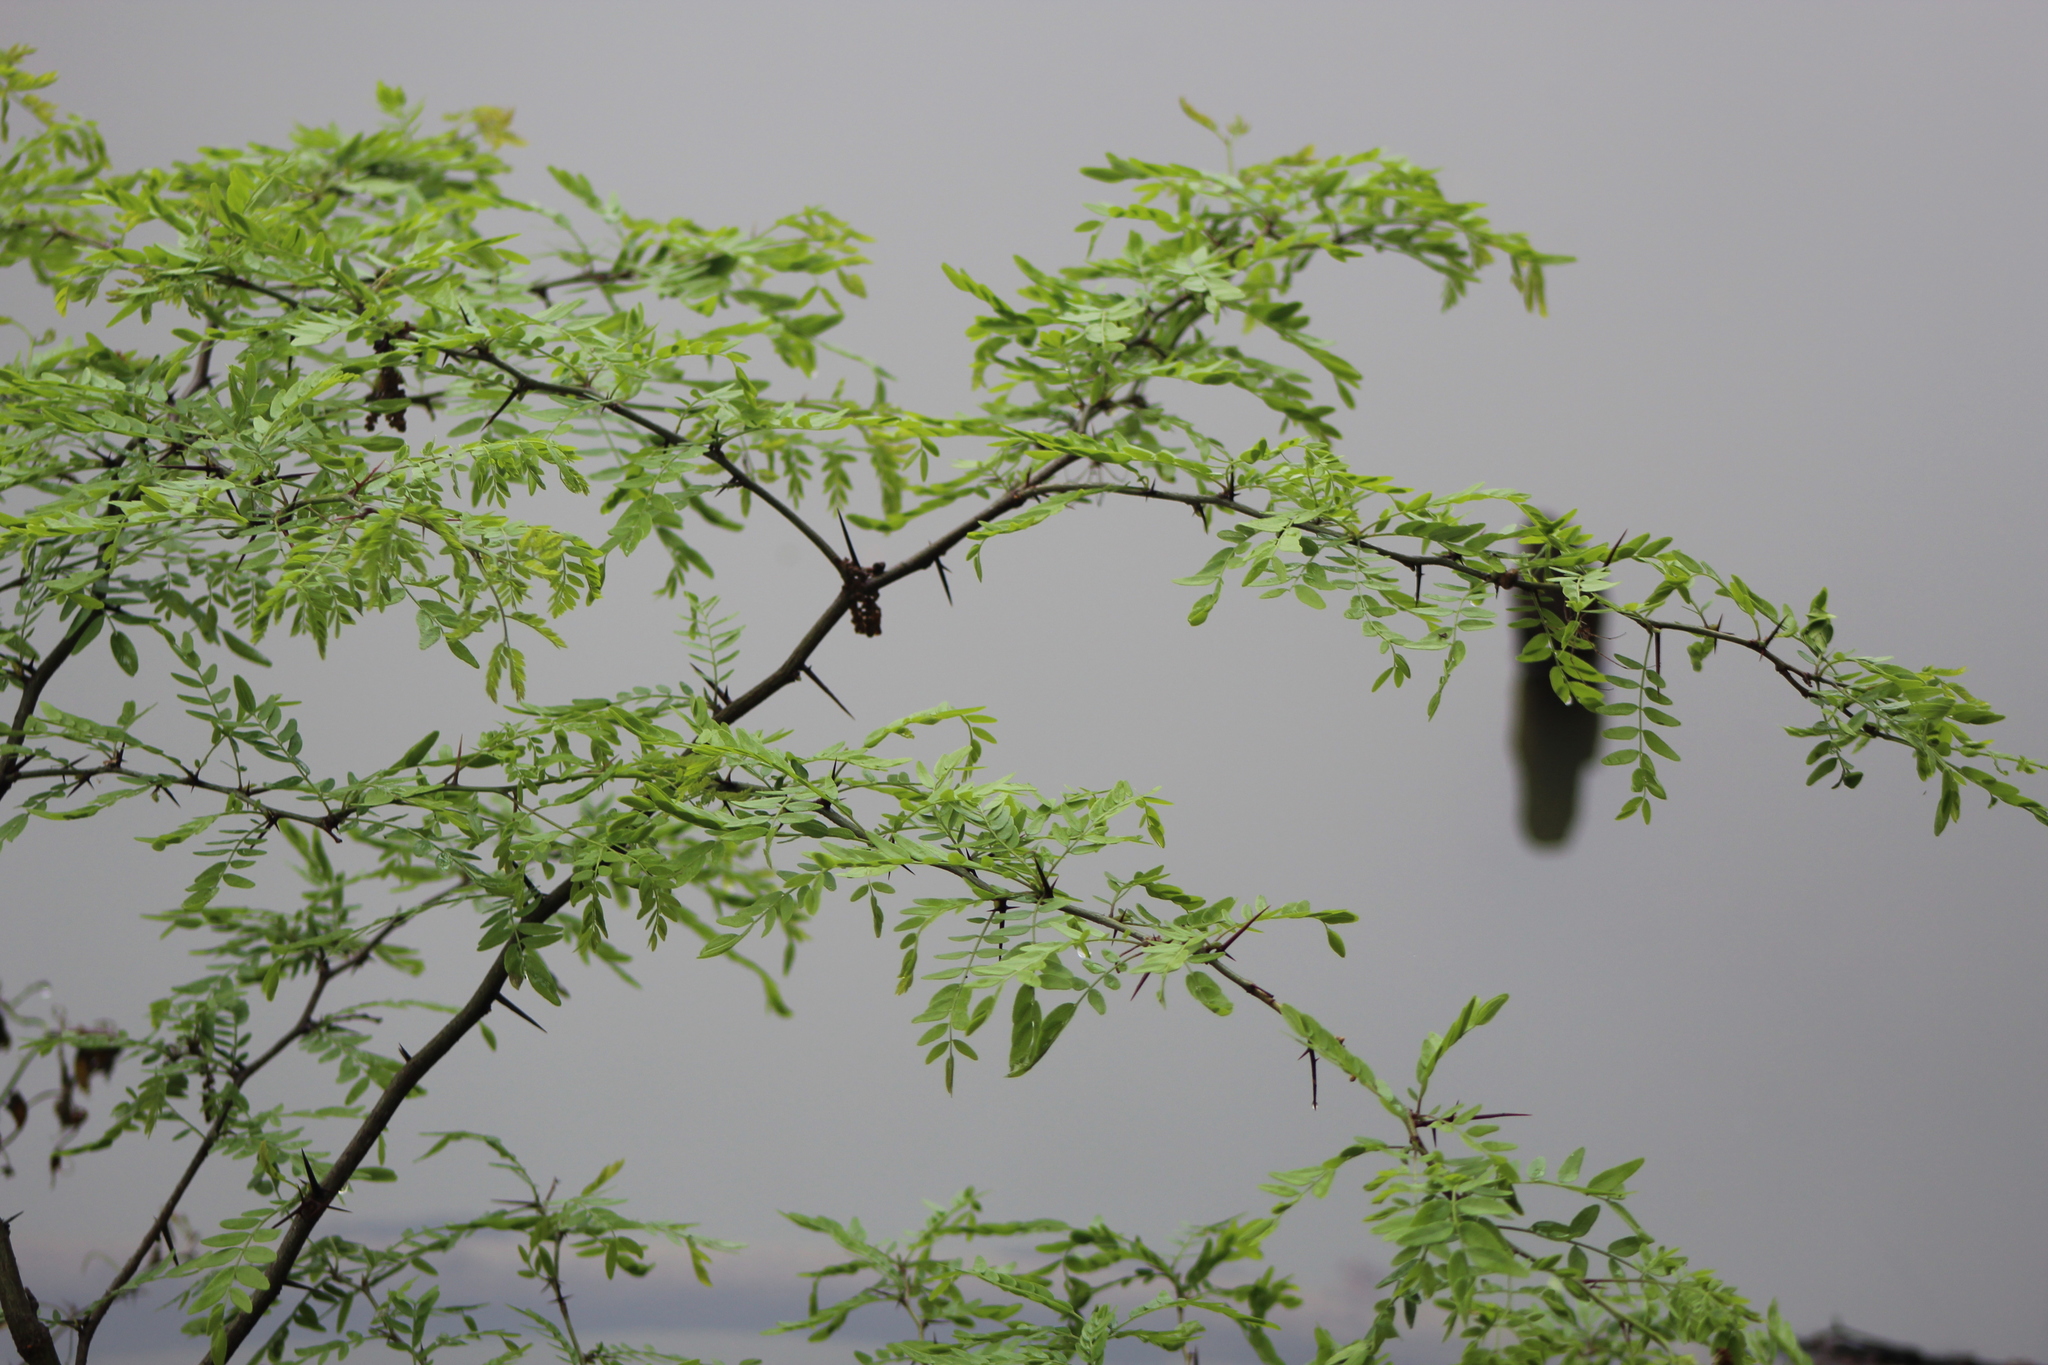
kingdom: Plantae
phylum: Tracheophyta
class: Magnoliopsida
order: Fabales
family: Fabaceae
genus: Gleditsia
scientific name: Gleditsia triacanthos
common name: Common honeylocust
